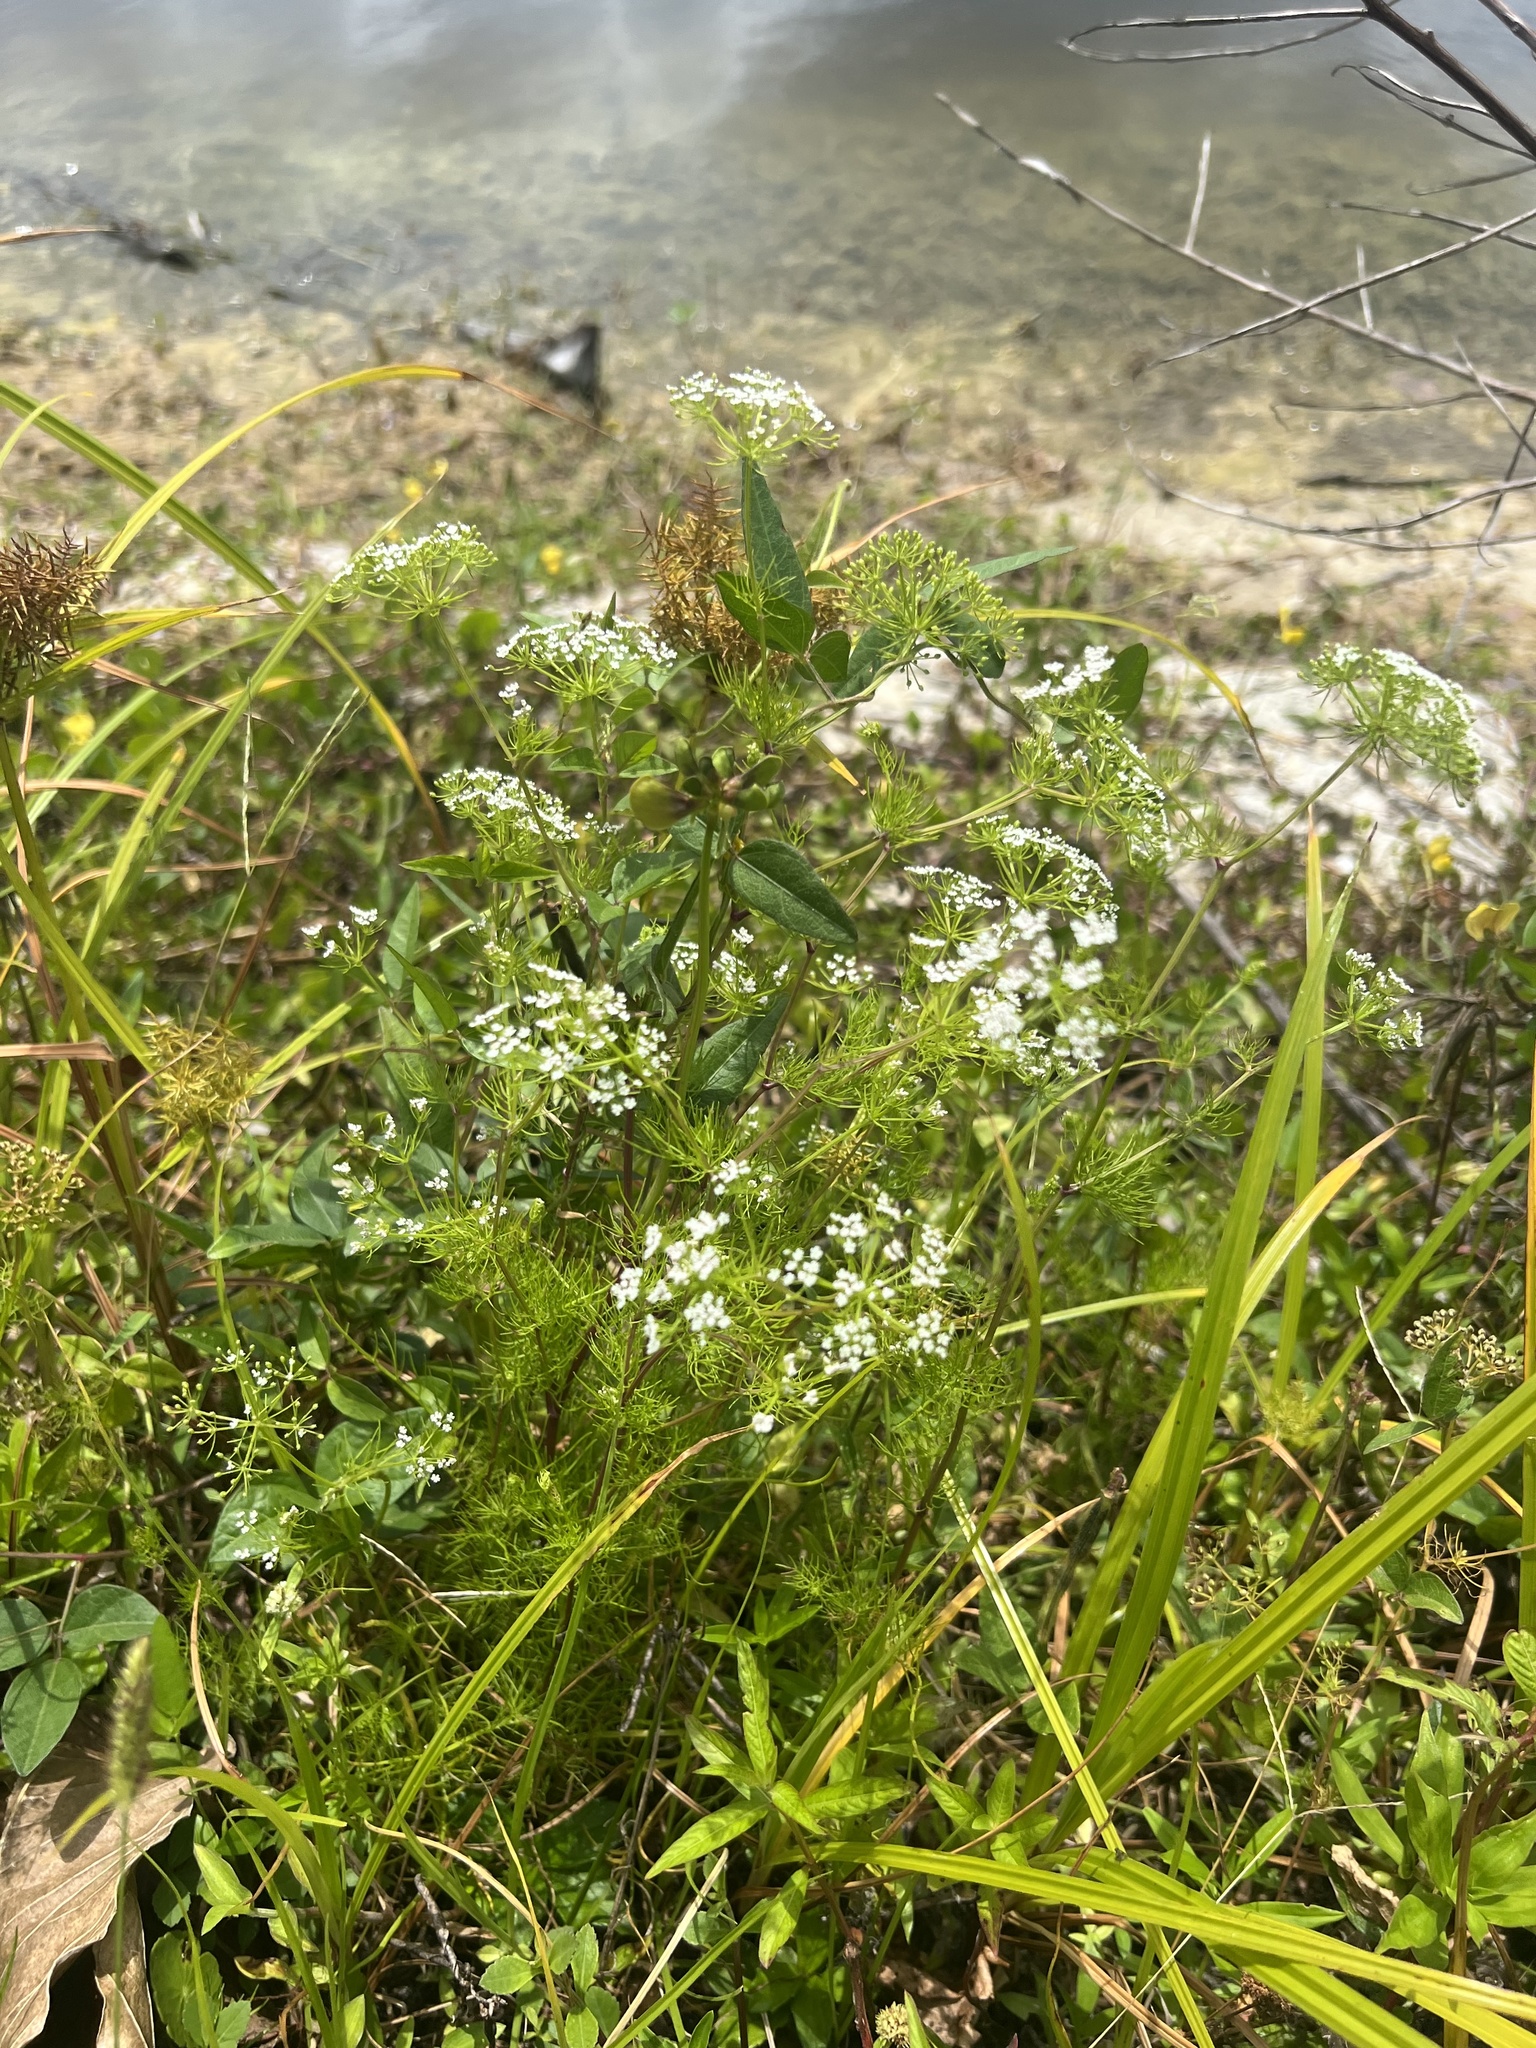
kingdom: Plantae
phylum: Tracheophyta
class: Magnoliopsida
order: Apiales
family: Apiaceae
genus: Ptilimnium
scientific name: Ptilimnium capillaceum
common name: Herbwilliam
